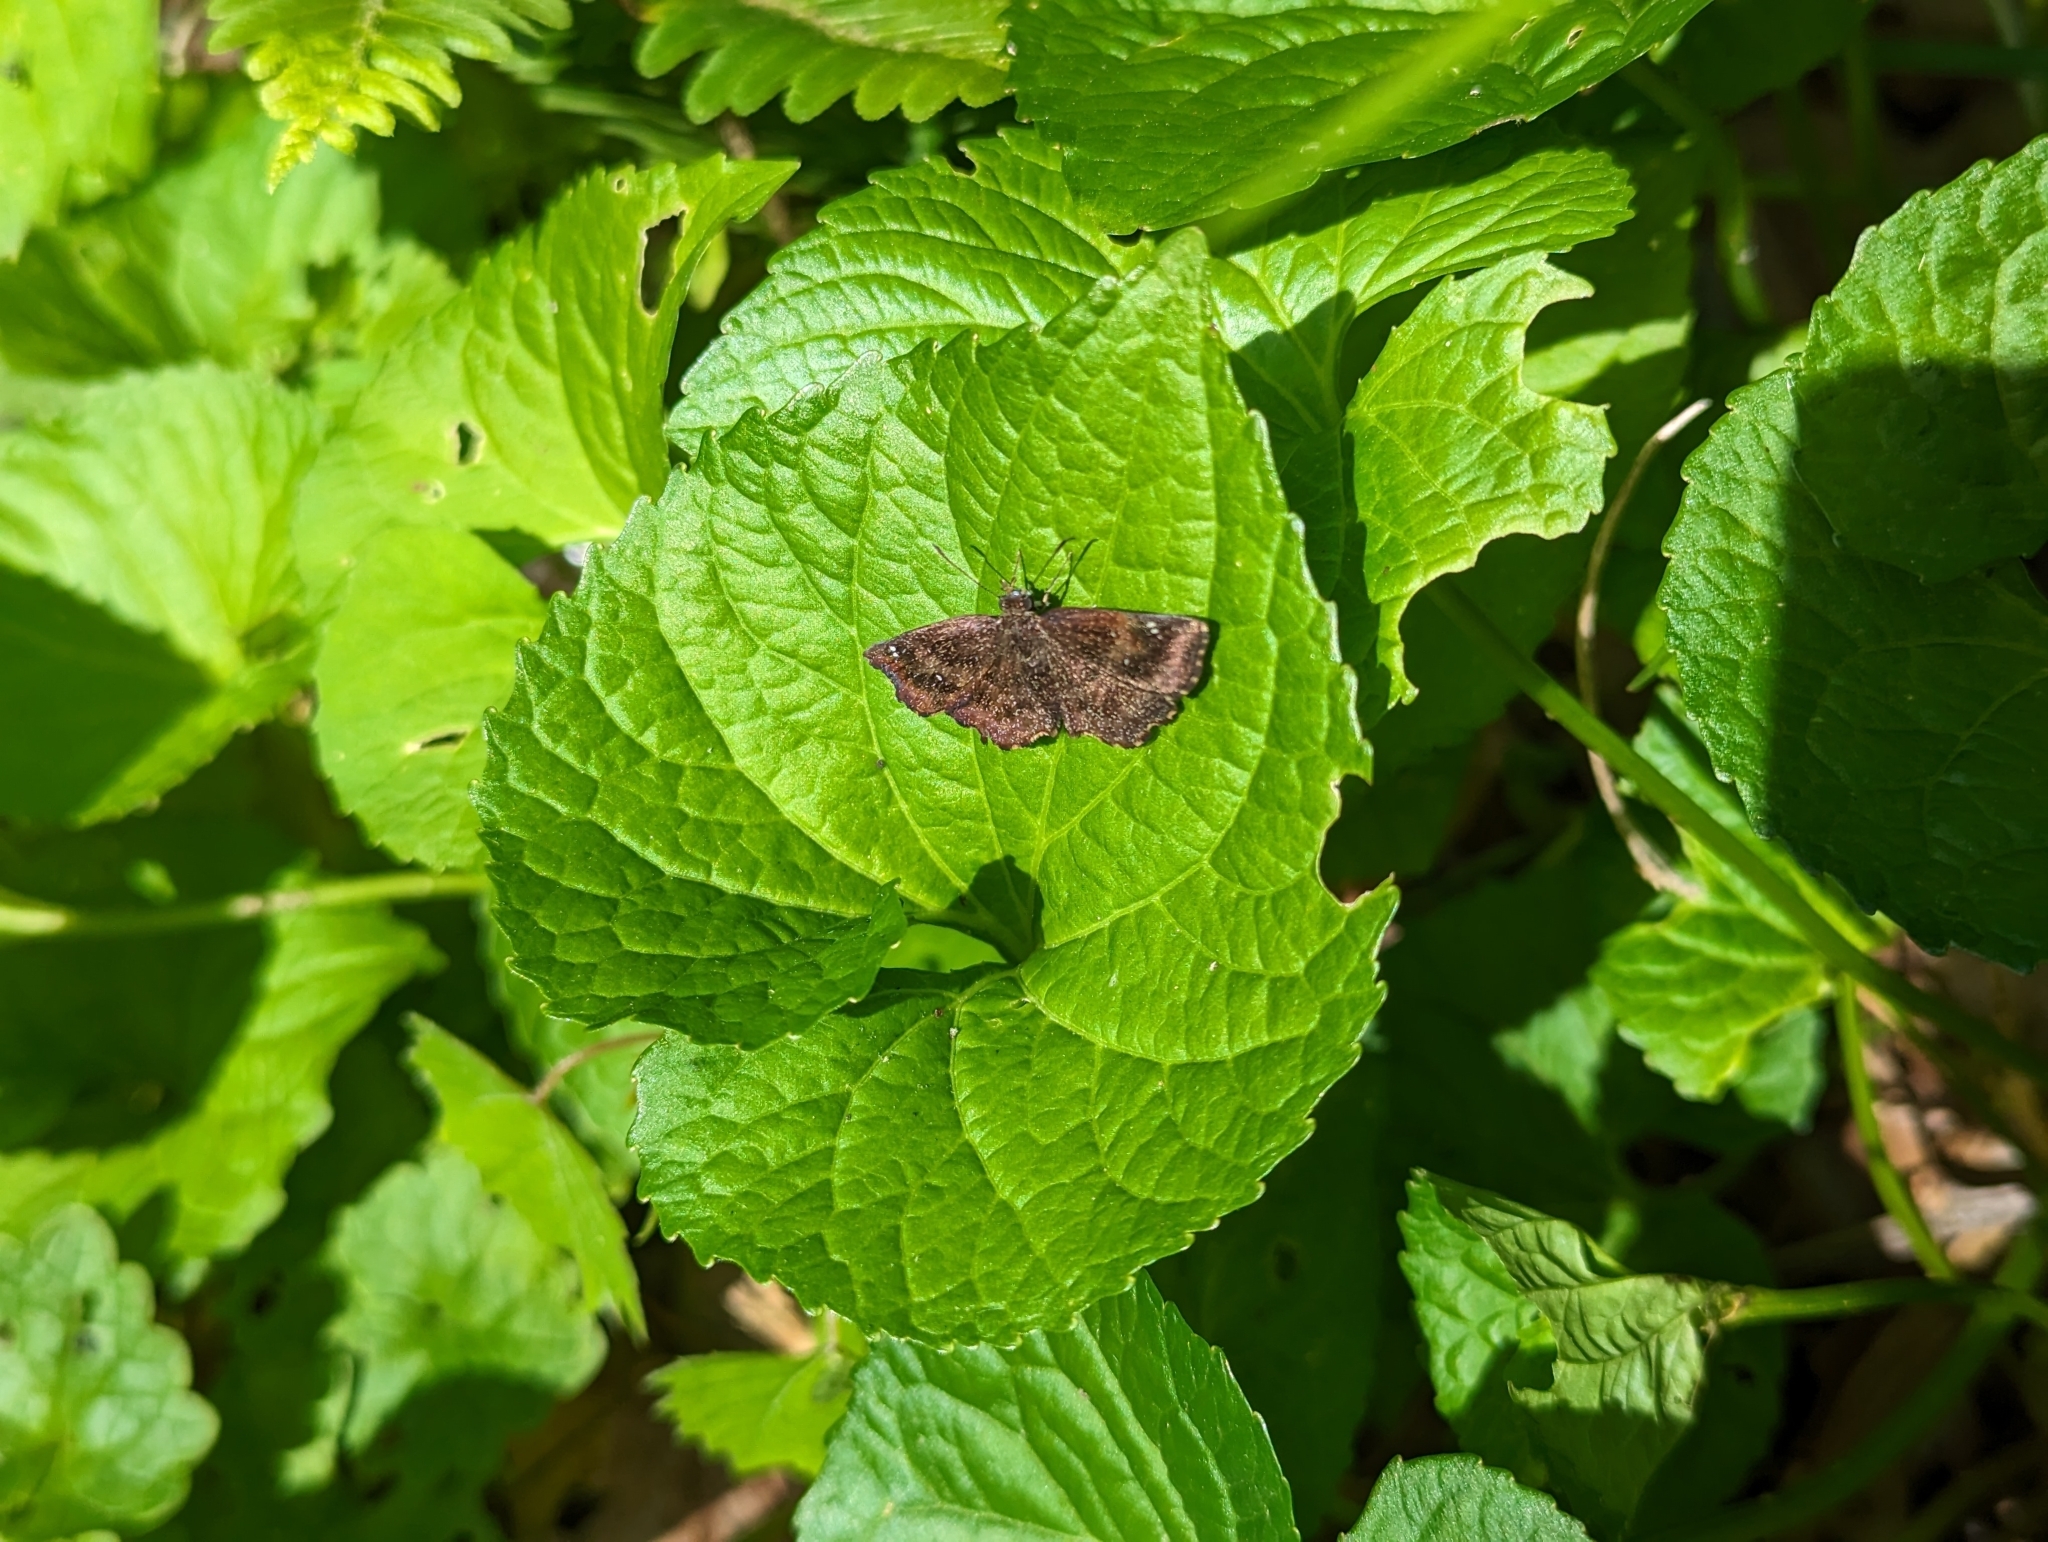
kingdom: Animalia
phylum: Arthropoda
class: Insecta
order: Lepidoptera
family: Hesperiidae
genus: Staphylus
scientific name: Staphylus mazans
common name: Mazans scallopwing
